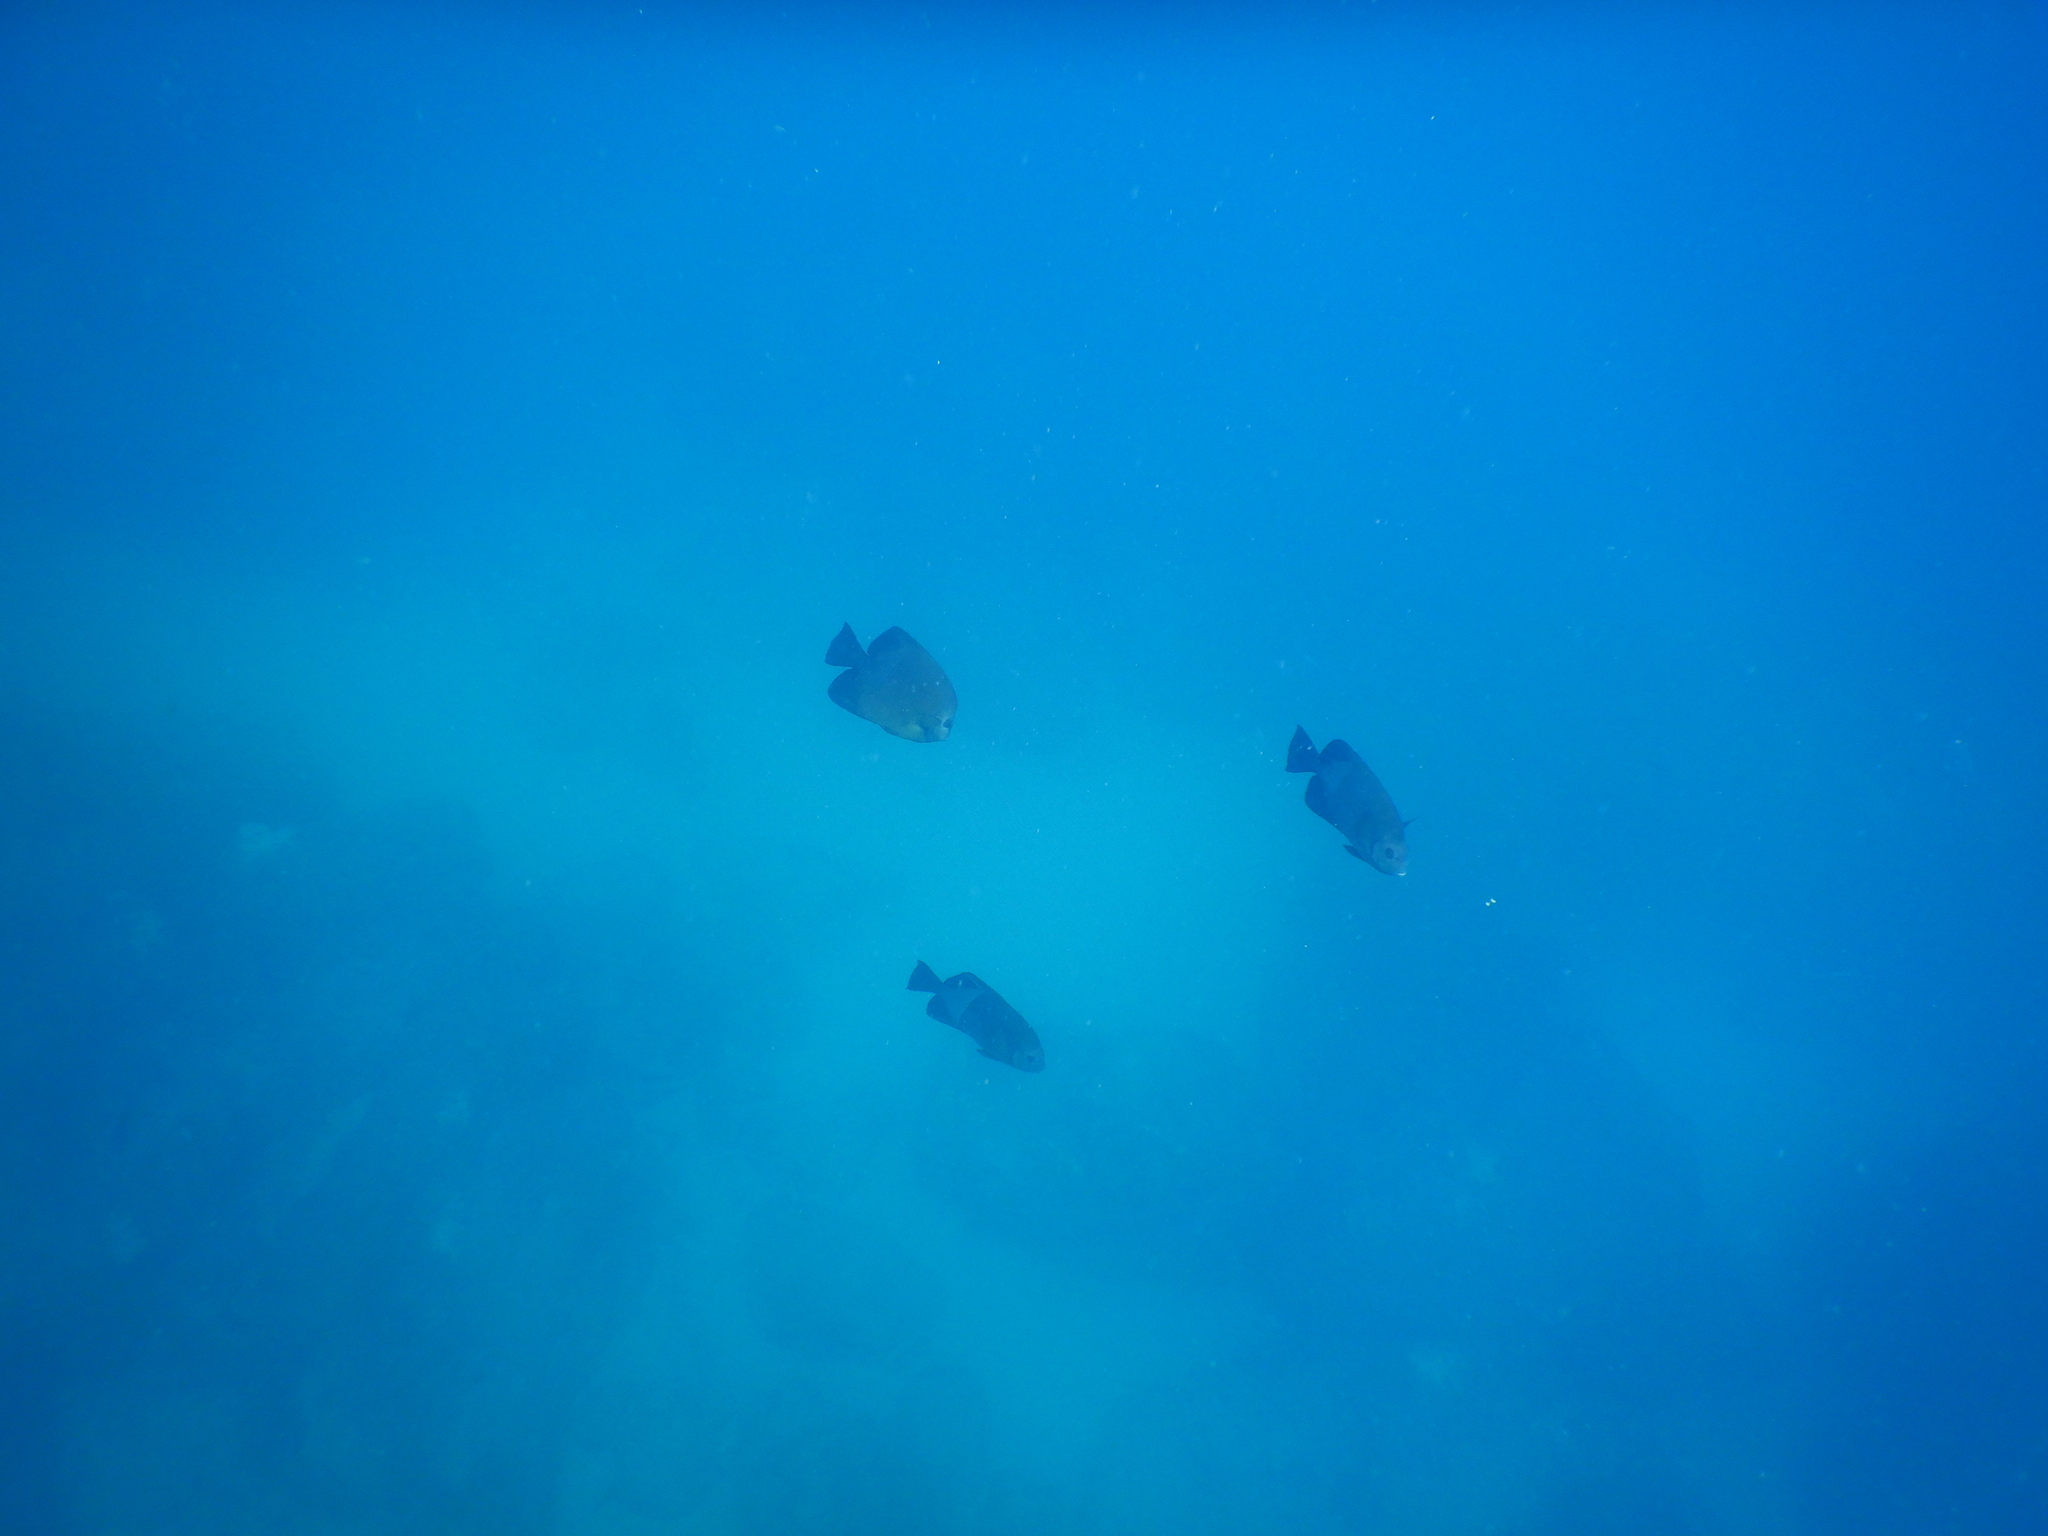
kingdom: Animalia
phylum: Chordata
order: Perciformes
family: Pomacanthidae
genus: Pomacanthus
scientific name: Pomacanthus rhomboides
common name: Old woman
